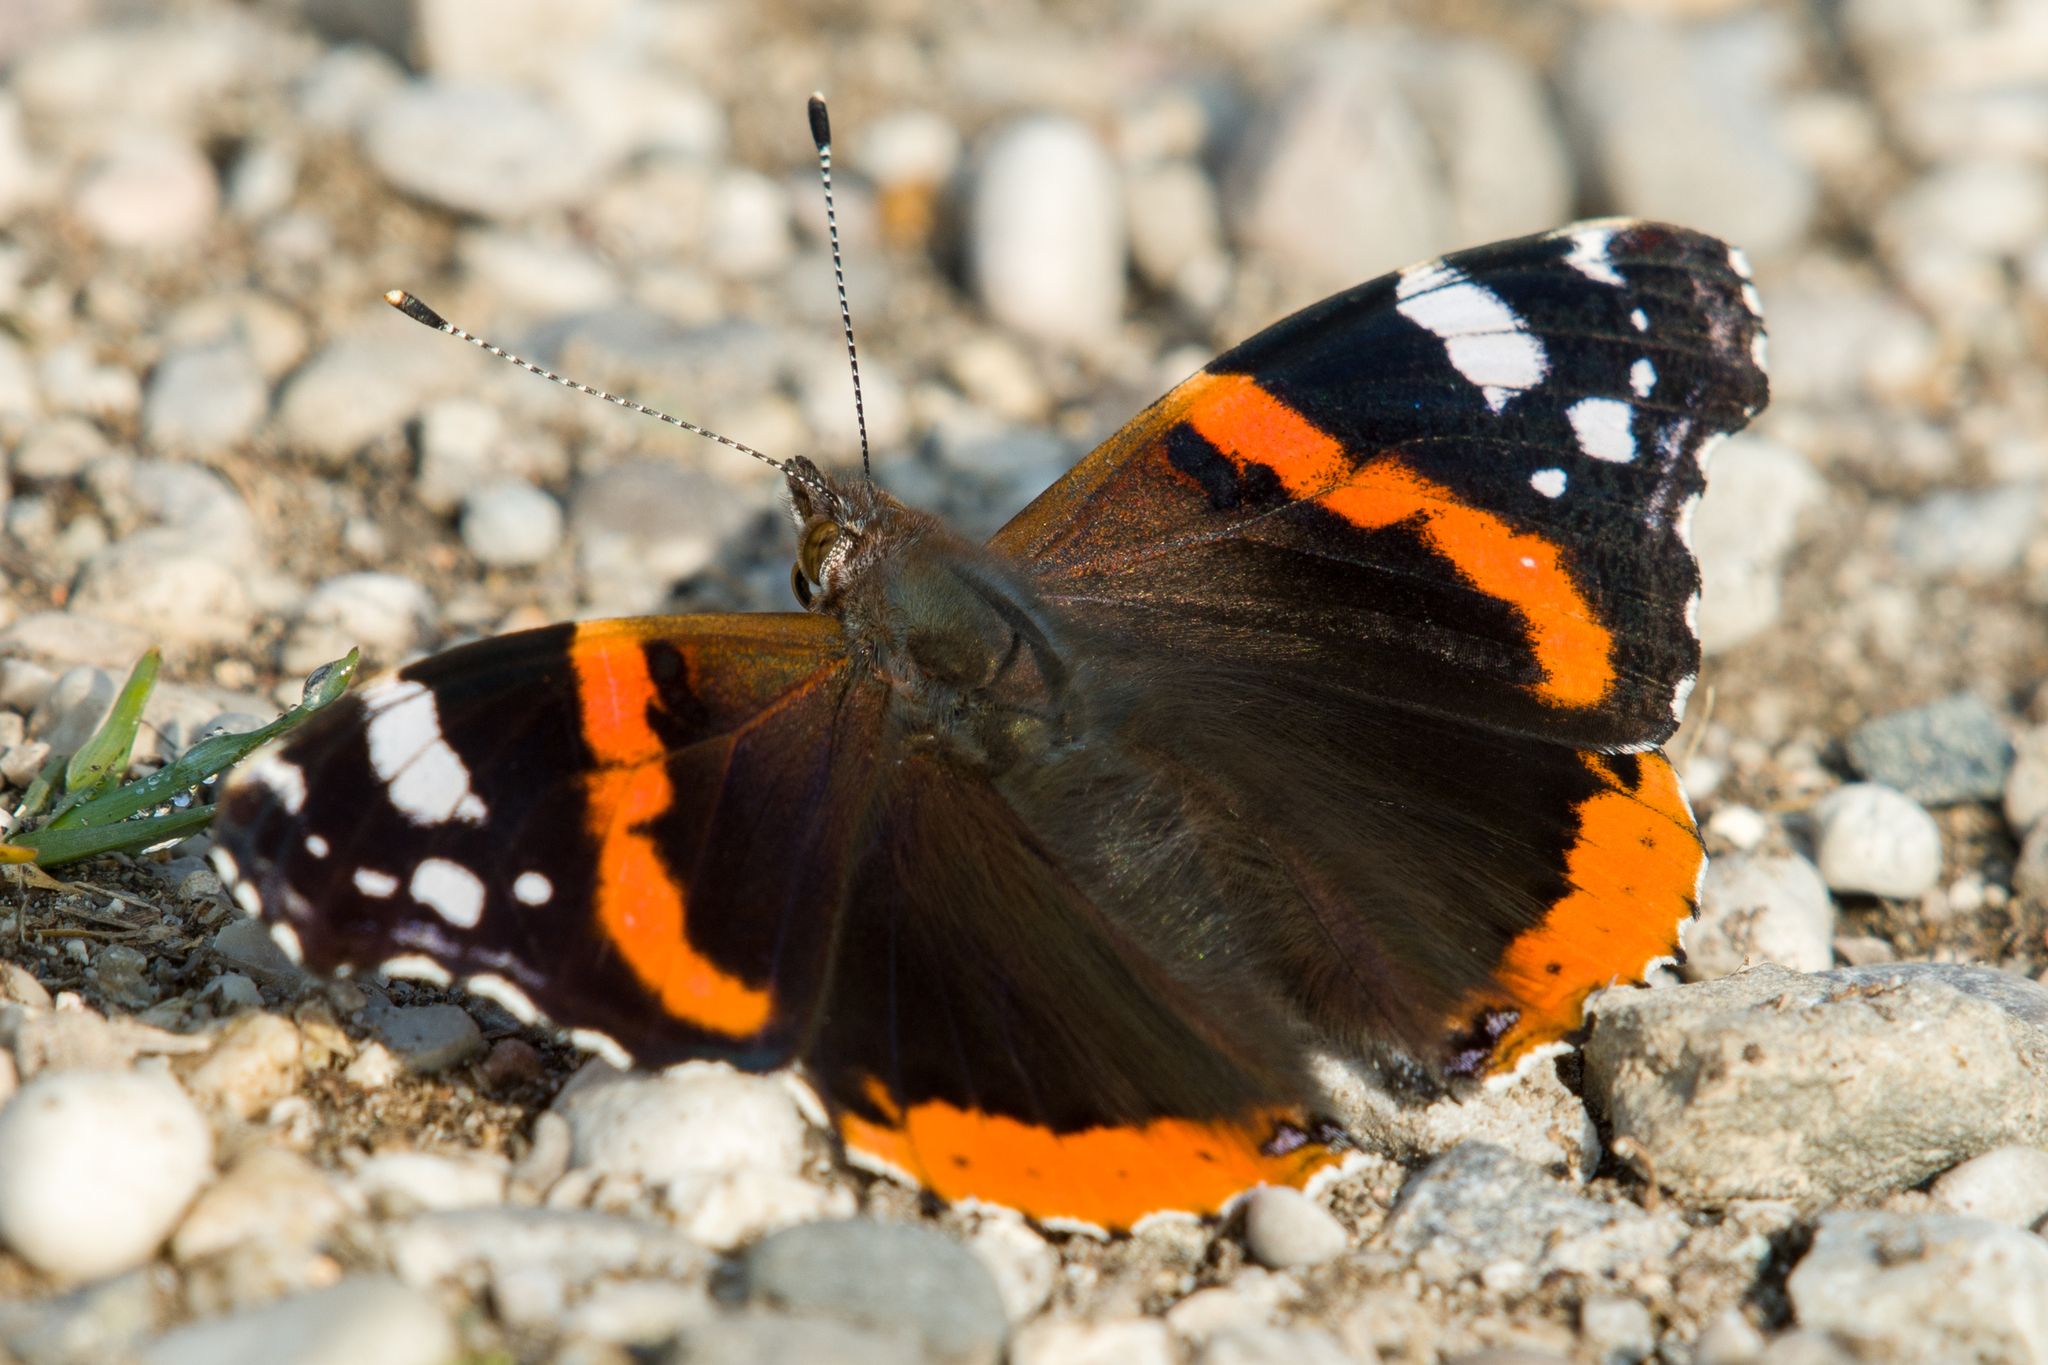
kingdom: Animalia
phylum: Arthropoda
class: Insecta
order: Lepidoptera
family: Nymphalidae
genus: Vanessa
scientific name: Vanessa atalanta
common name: Red admiral
